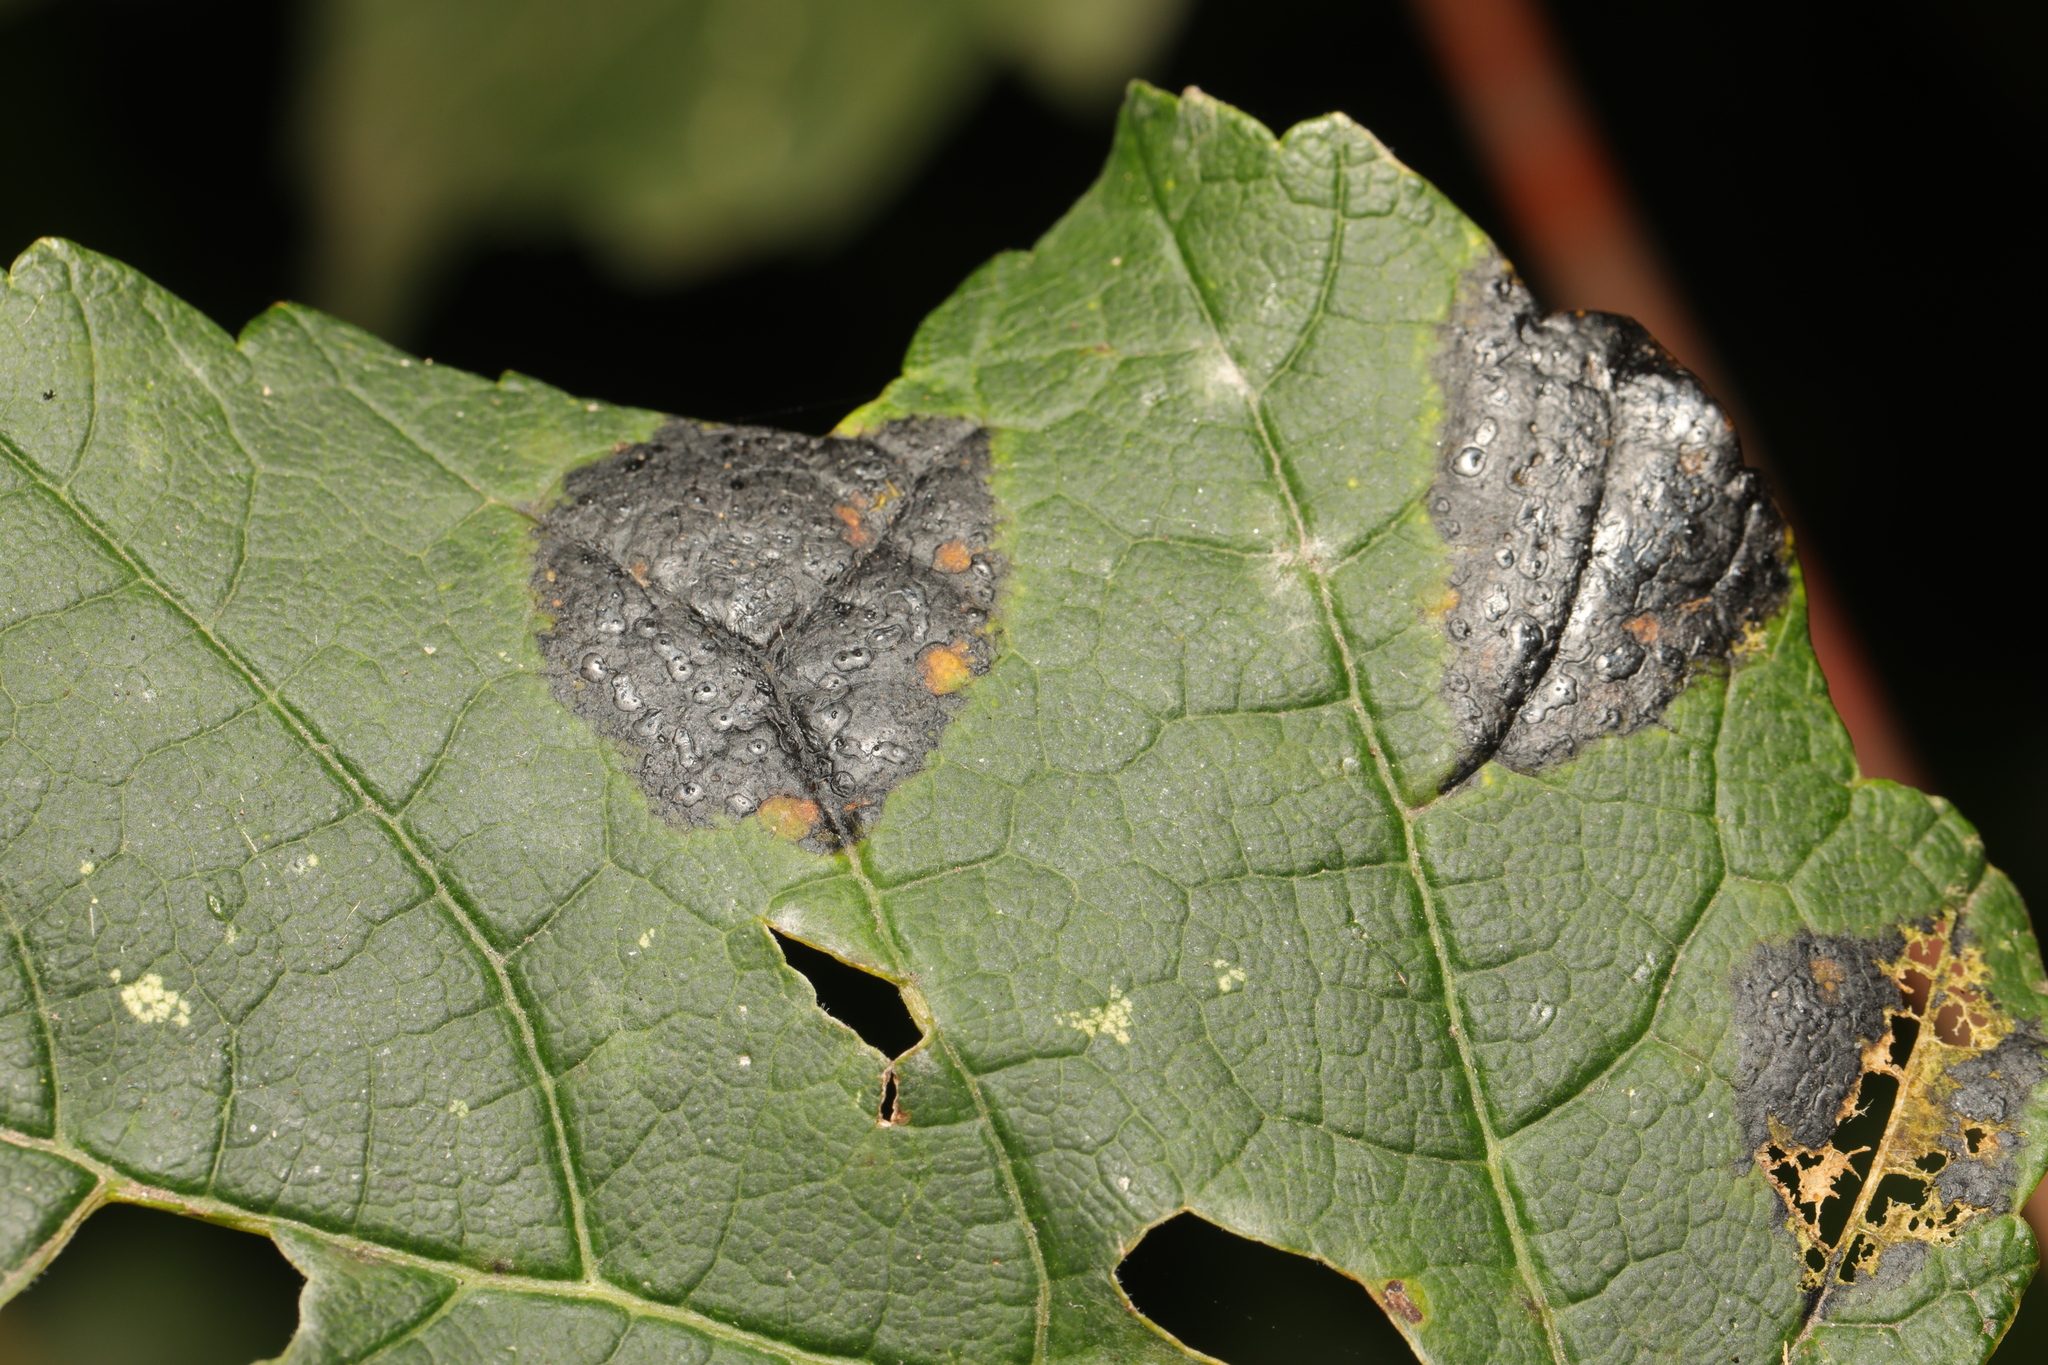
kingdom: Fungi
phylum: Ascomycota
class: Leotiomycetes
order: Rhytismatales
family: Rhytismataceae
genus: Rhytisma
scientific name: Rhytisma acerinum
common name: European tar spot
